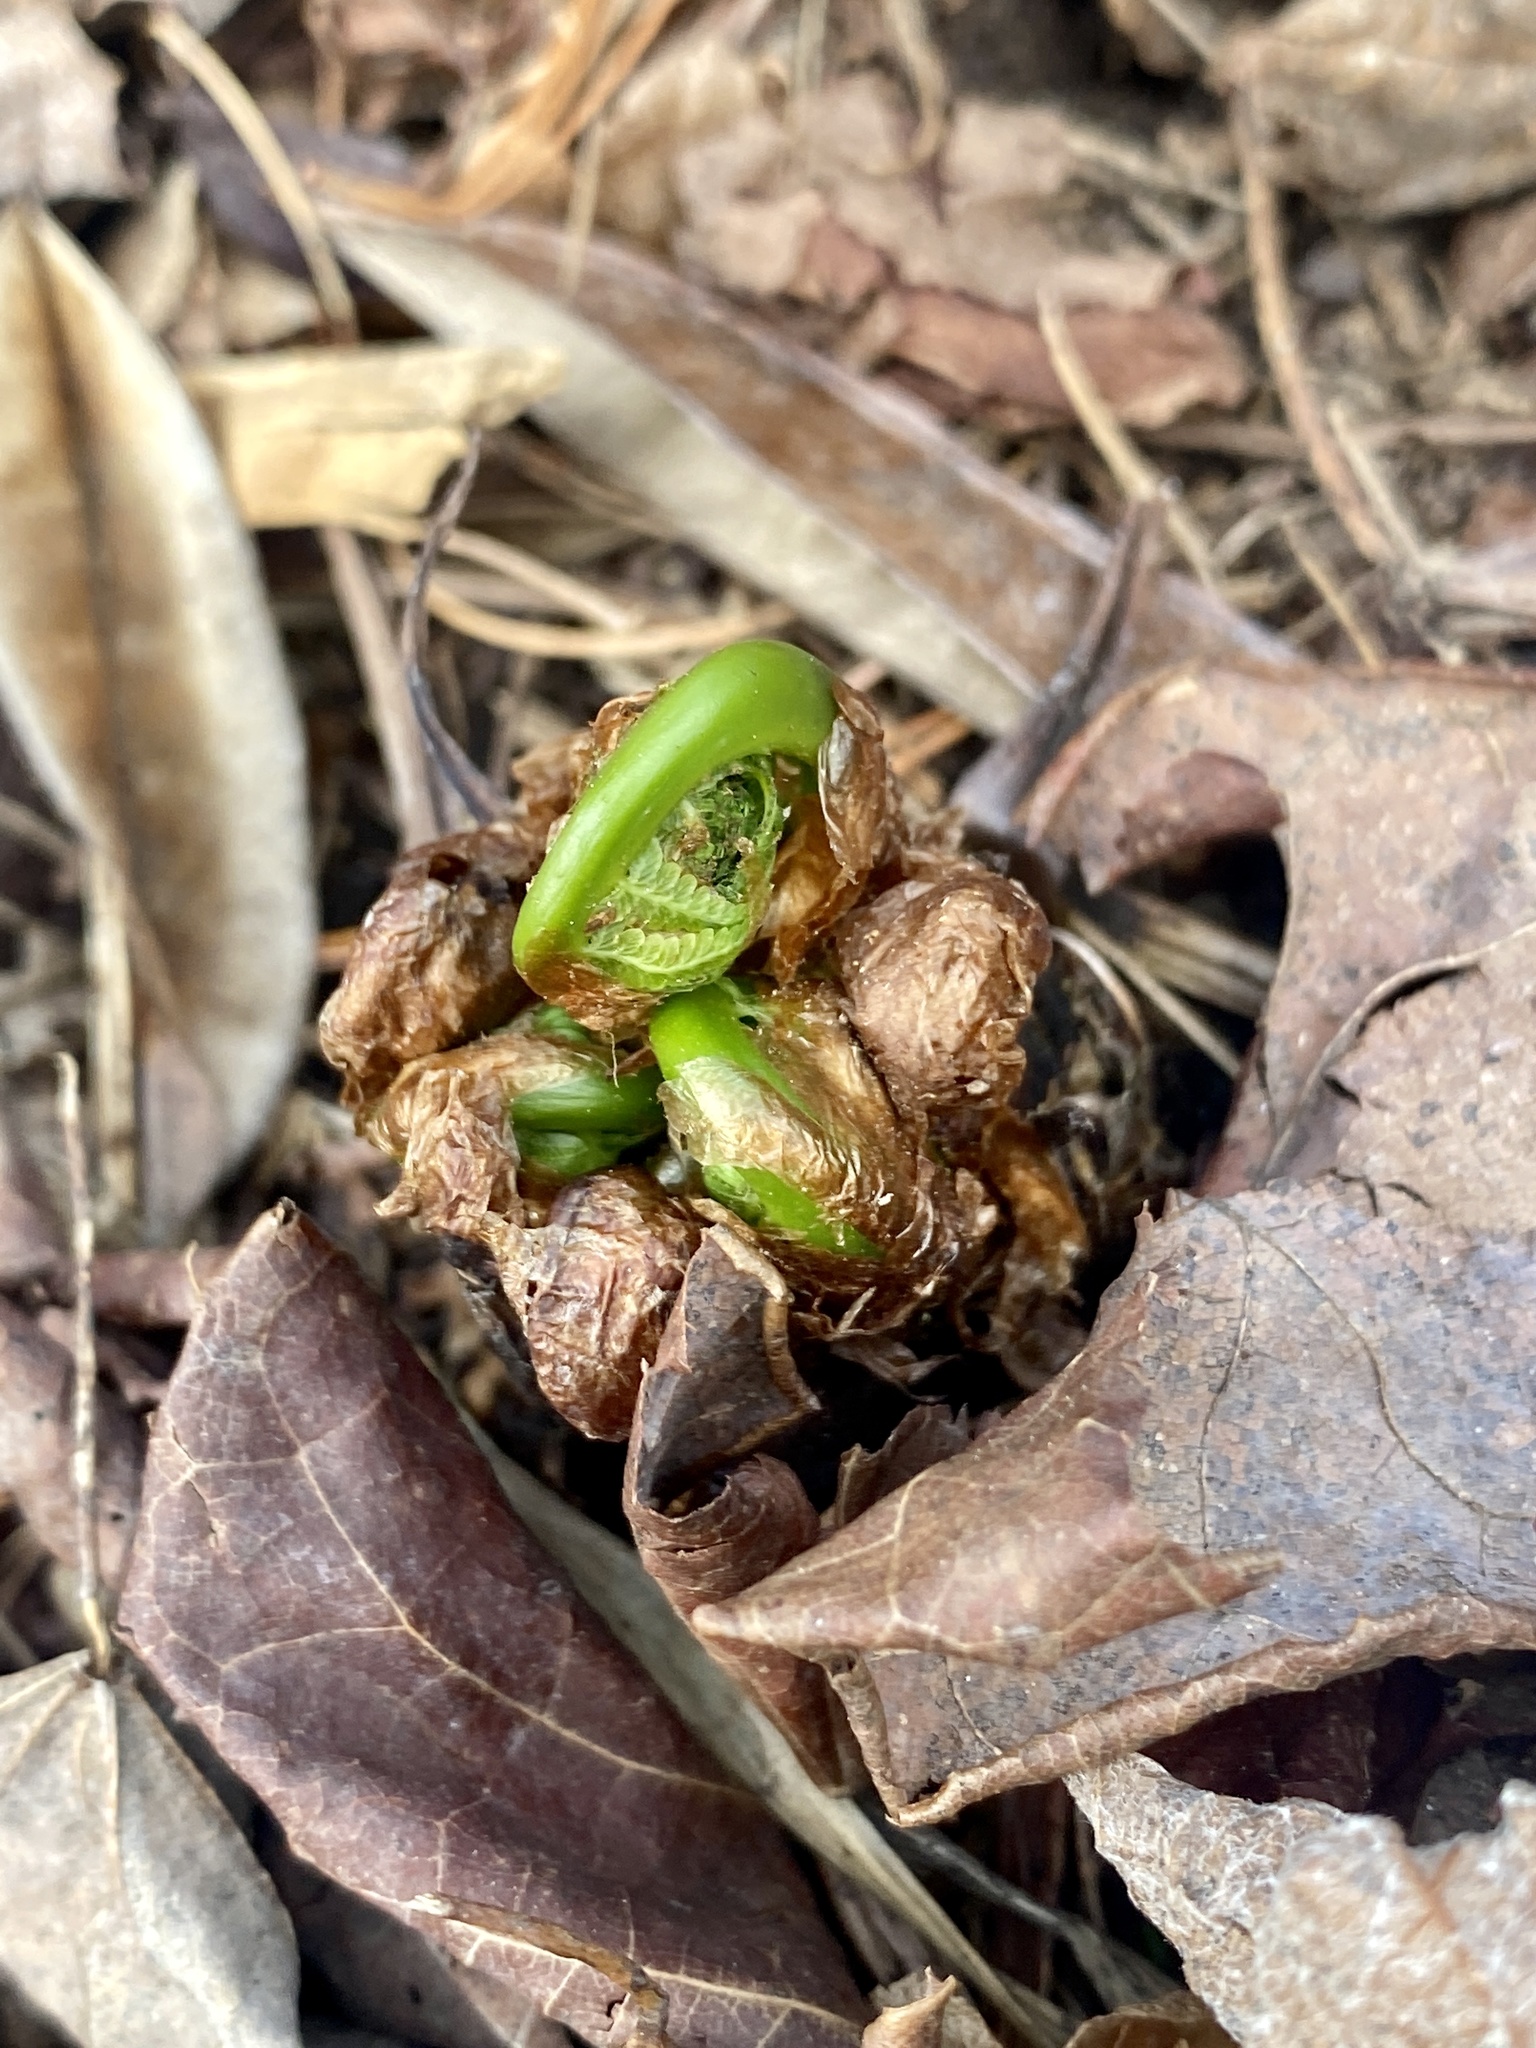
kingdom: Plantae
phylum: Tracheophyta
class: Polypodiopsida
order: Polypodiales
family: Onocleaceae
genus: Matteuccia
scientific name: Matteuccia struthiopteris
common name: Ostrich fern
